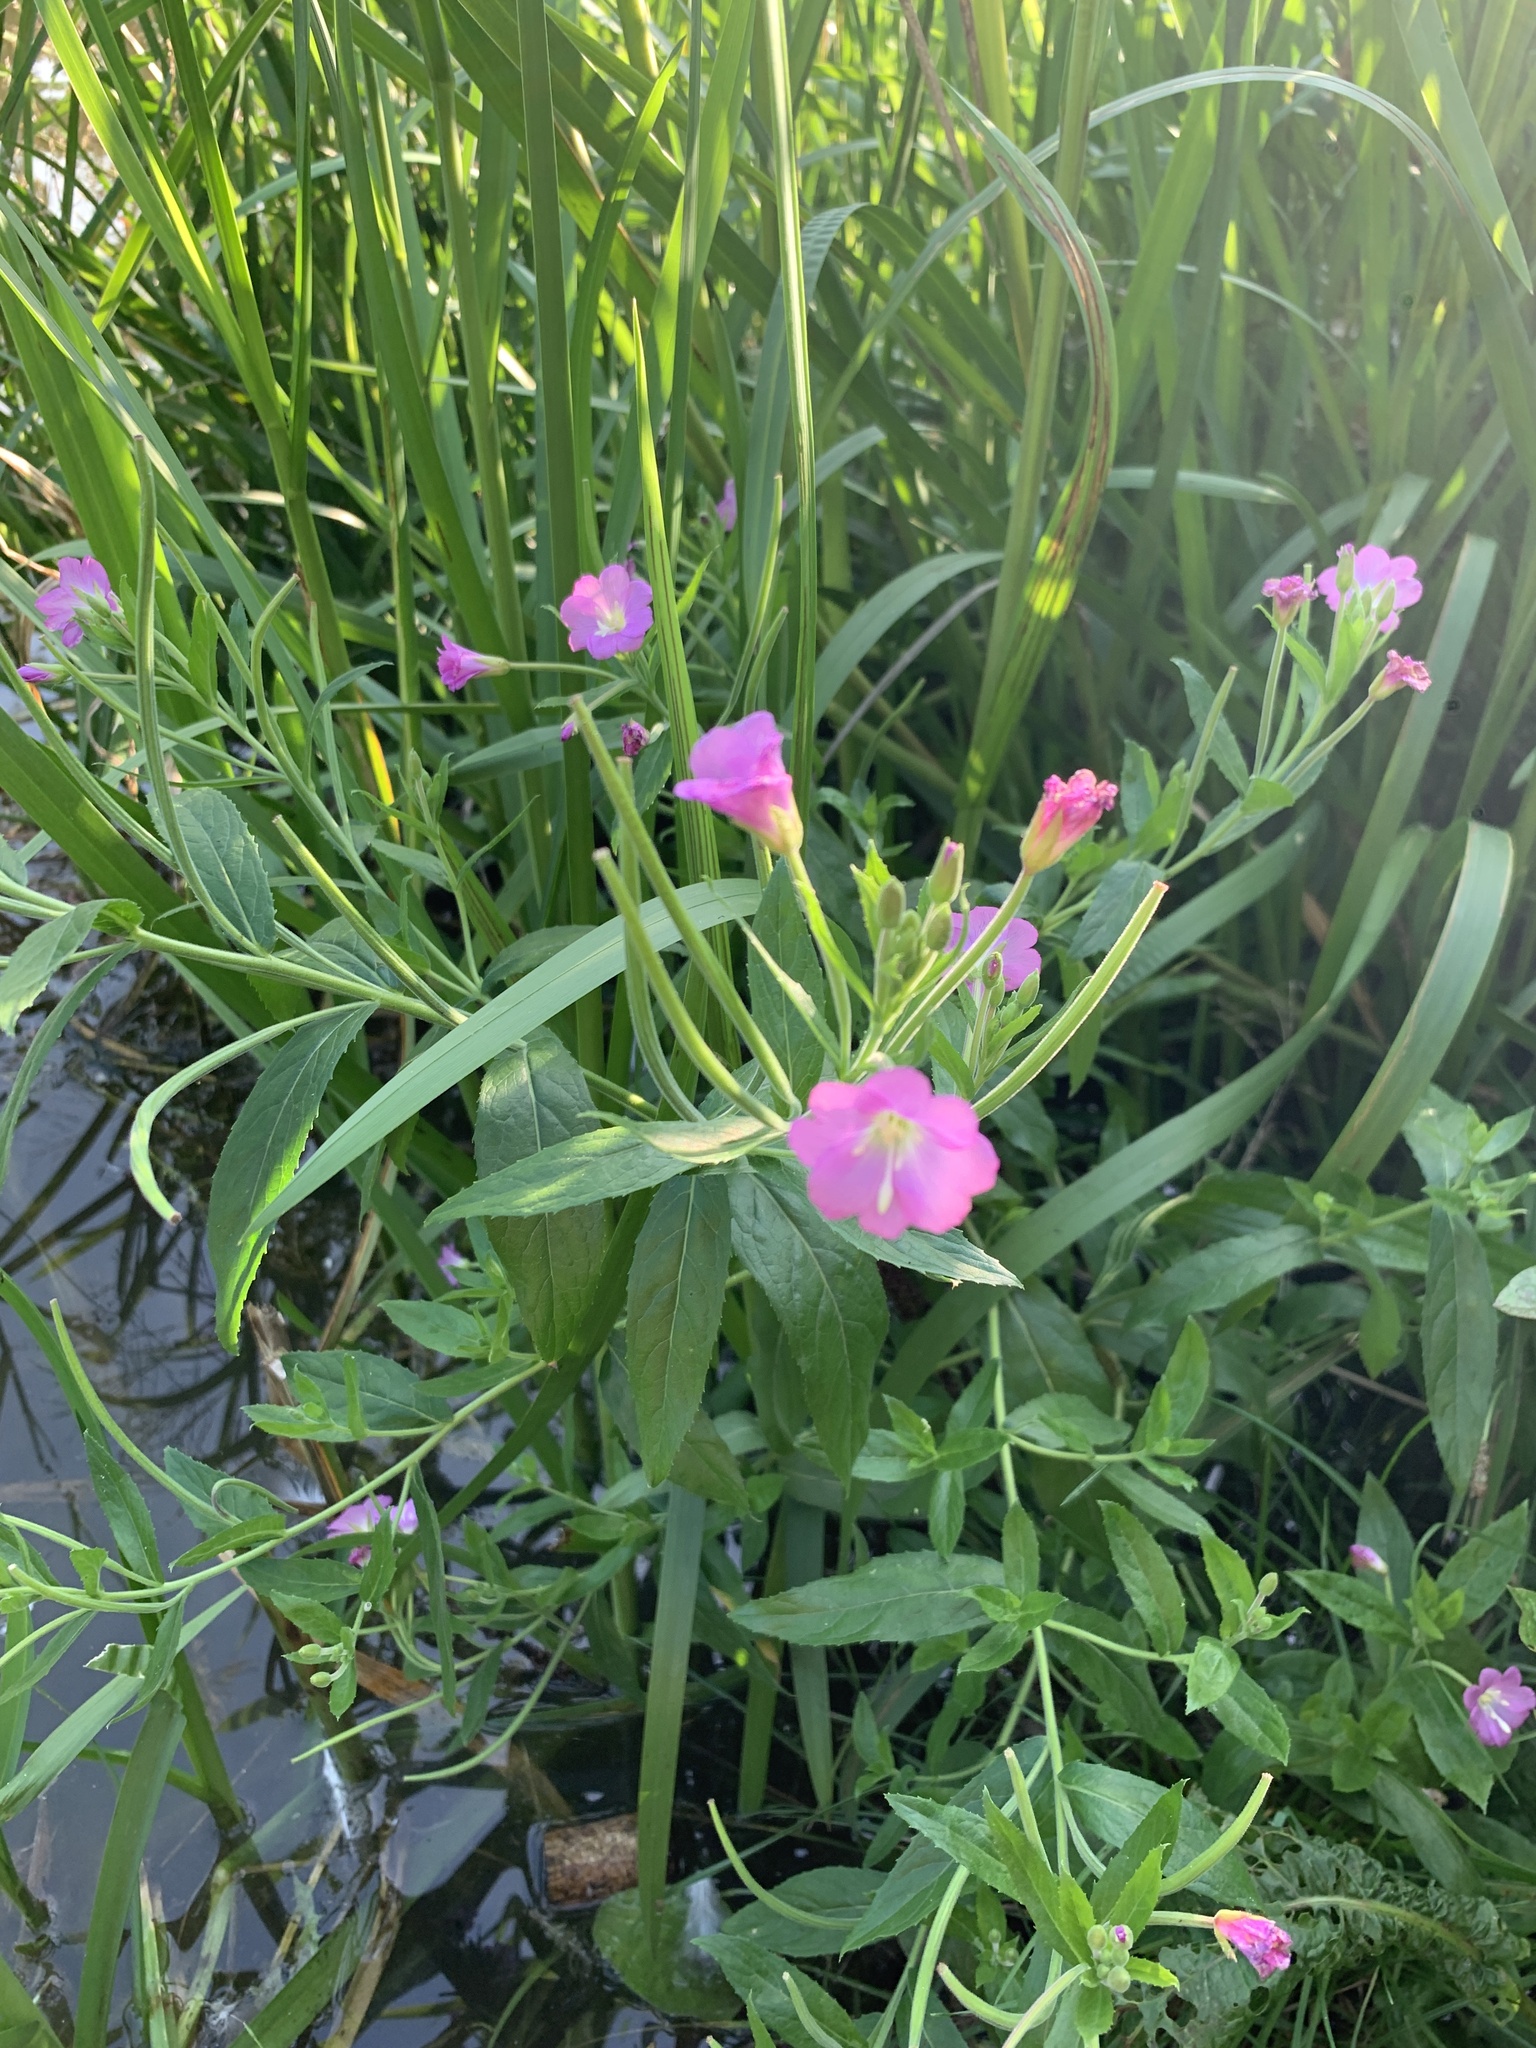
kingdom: Plantae
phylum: Tracheophyta
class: Magnoliopsida
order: Myrtales
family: Onagraceae
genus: Epilobium
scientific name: Epilobium hirsutum
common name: Great willowherb
